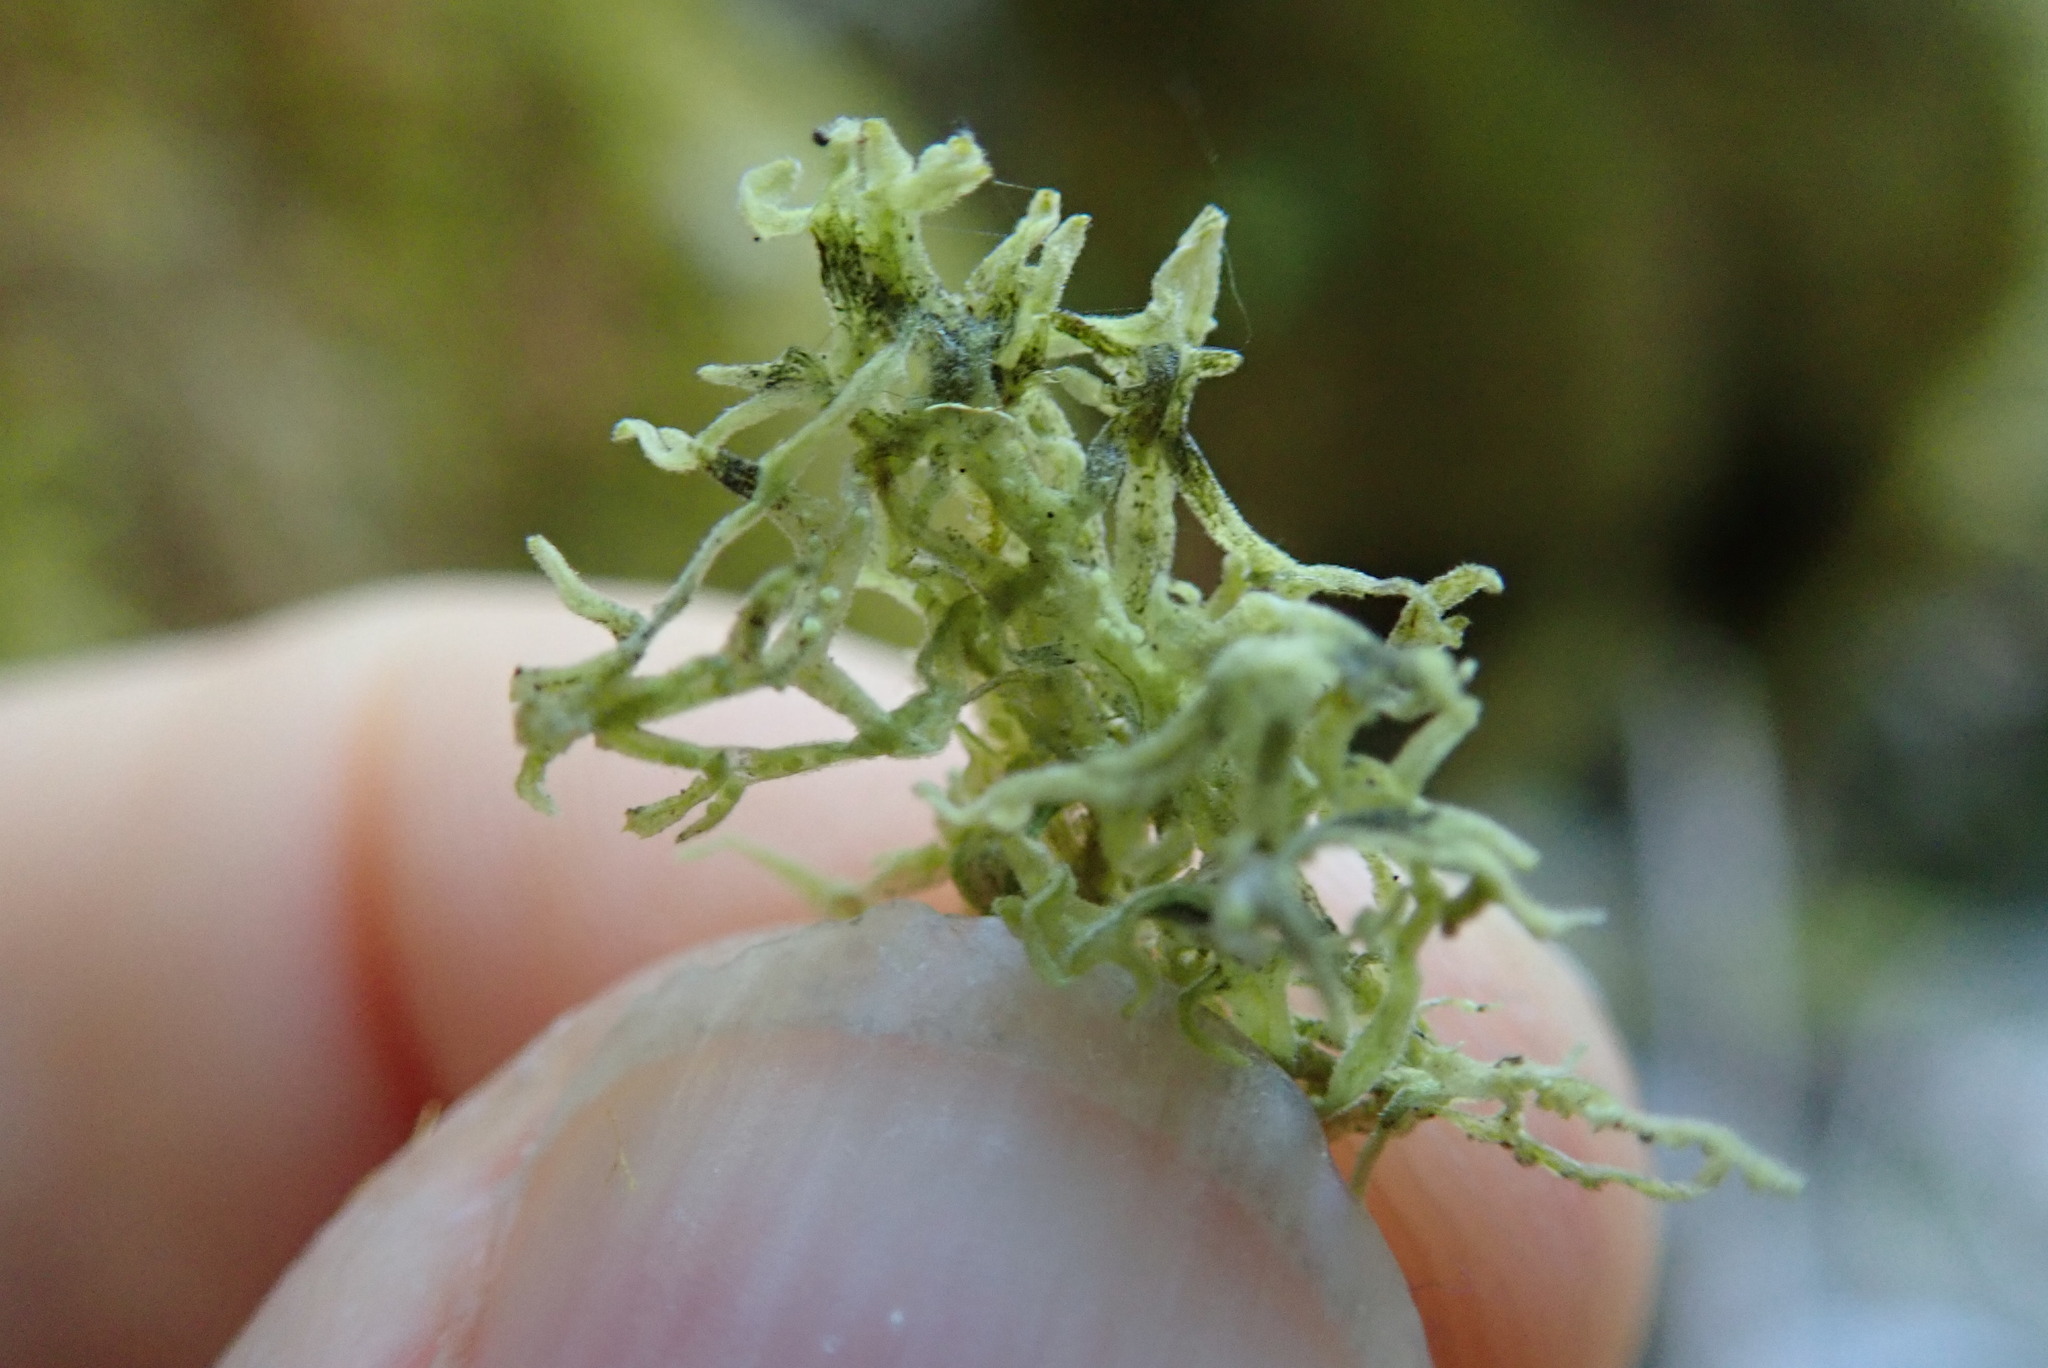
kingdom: Plantae
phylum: Marchantiophyta
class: Jungermanniopsida
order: Metzgeriales
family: Metzgeriaceae
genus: Metzgeria
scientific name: Metzgeria pubescens
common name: Downy veilwort
